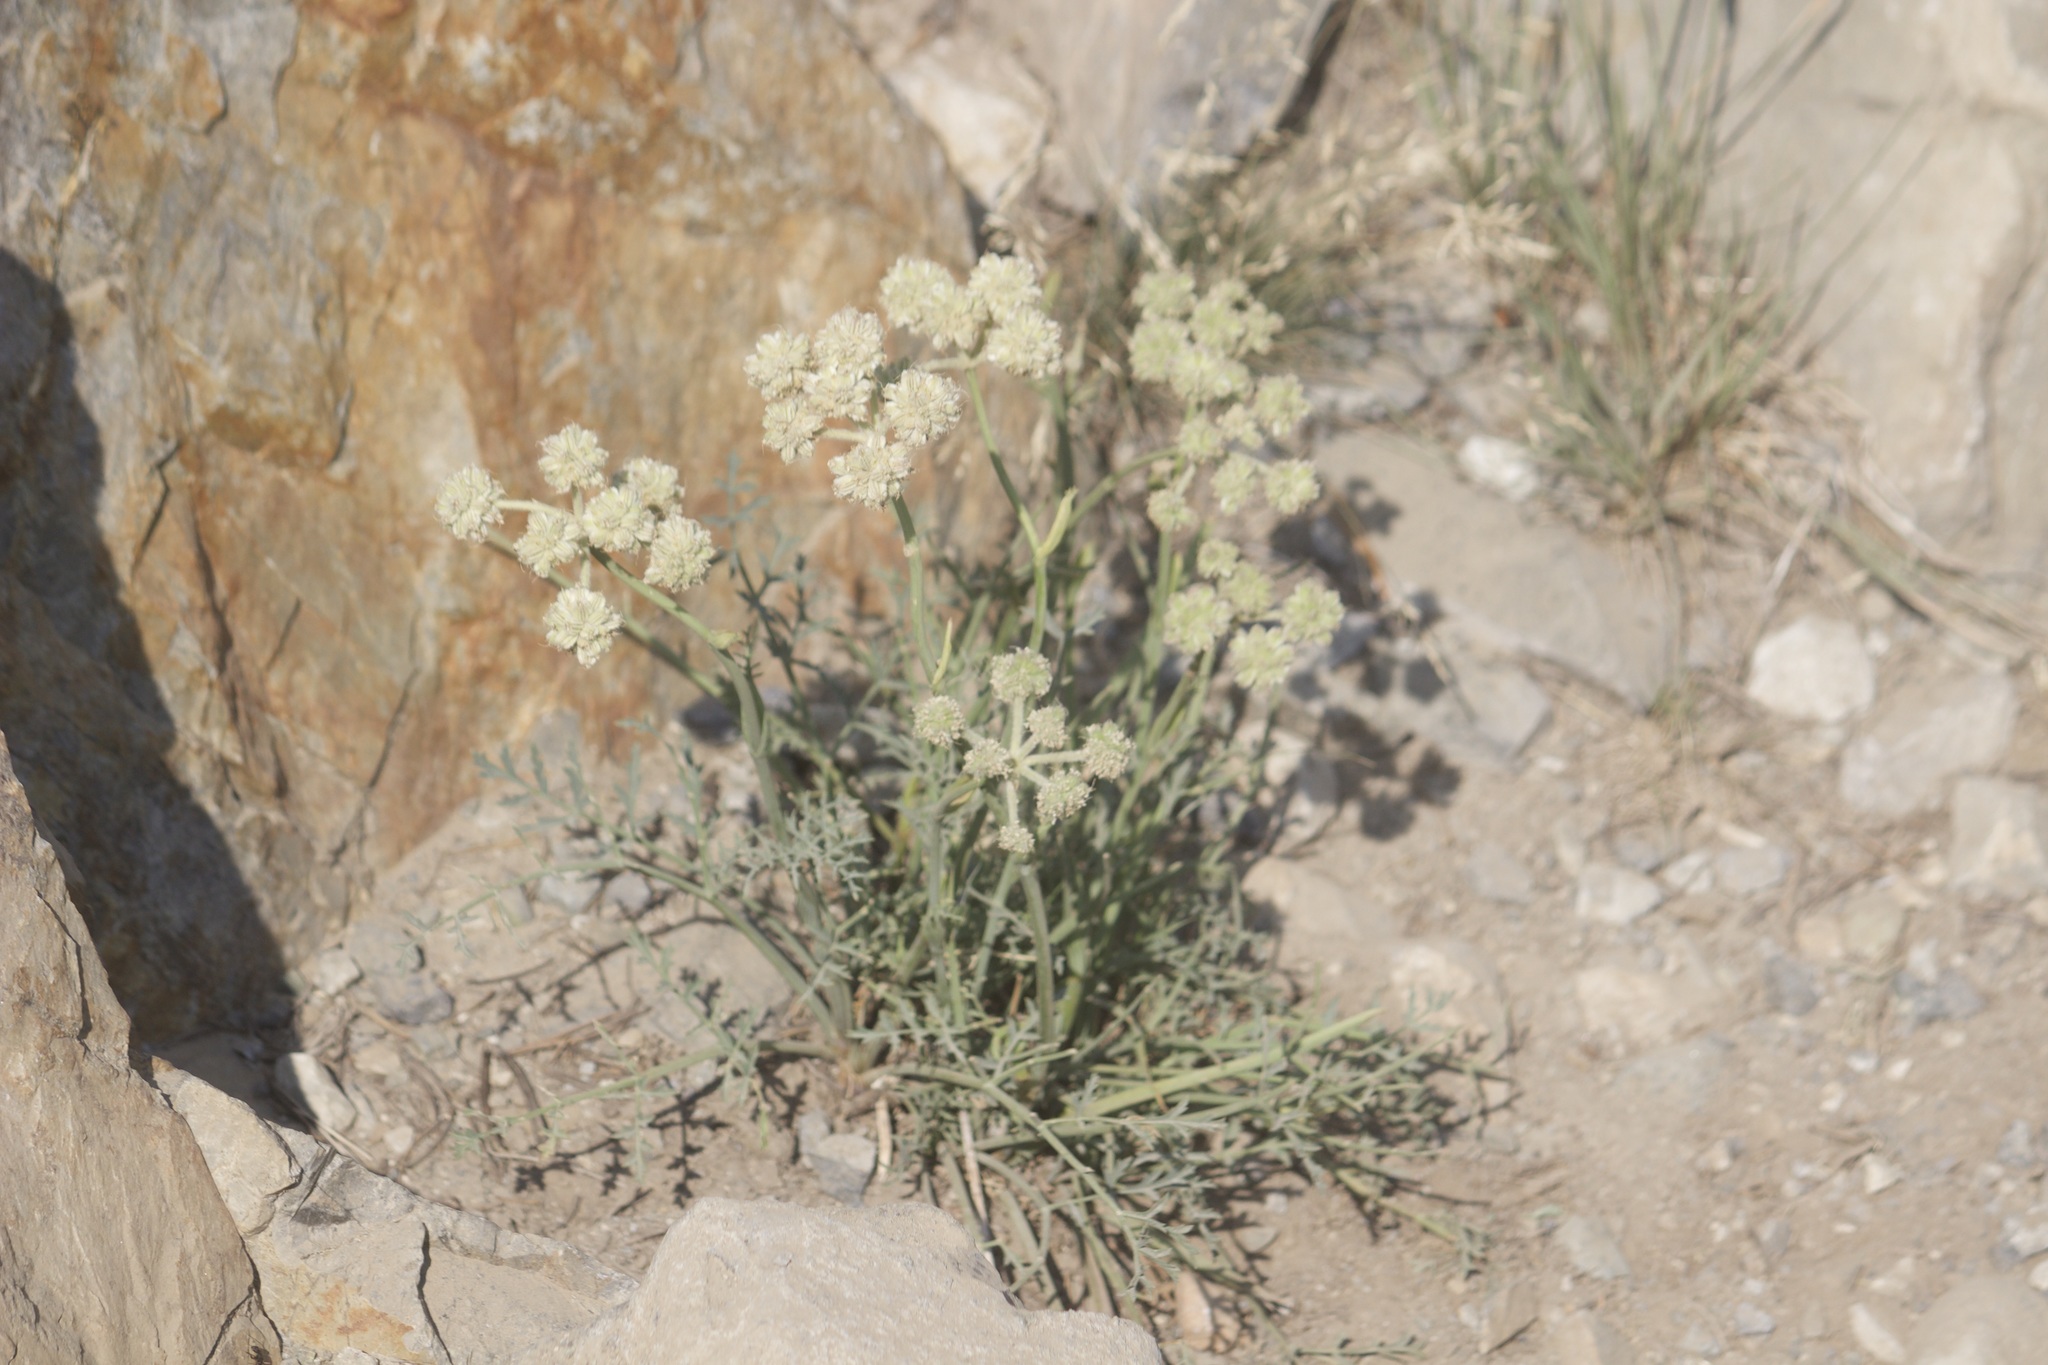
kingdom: Plantae
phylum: Tracheophyta
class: Magnoliopsida
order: Apiales
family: Apiaceae
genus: Angelica
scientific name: Angelica capitellata
